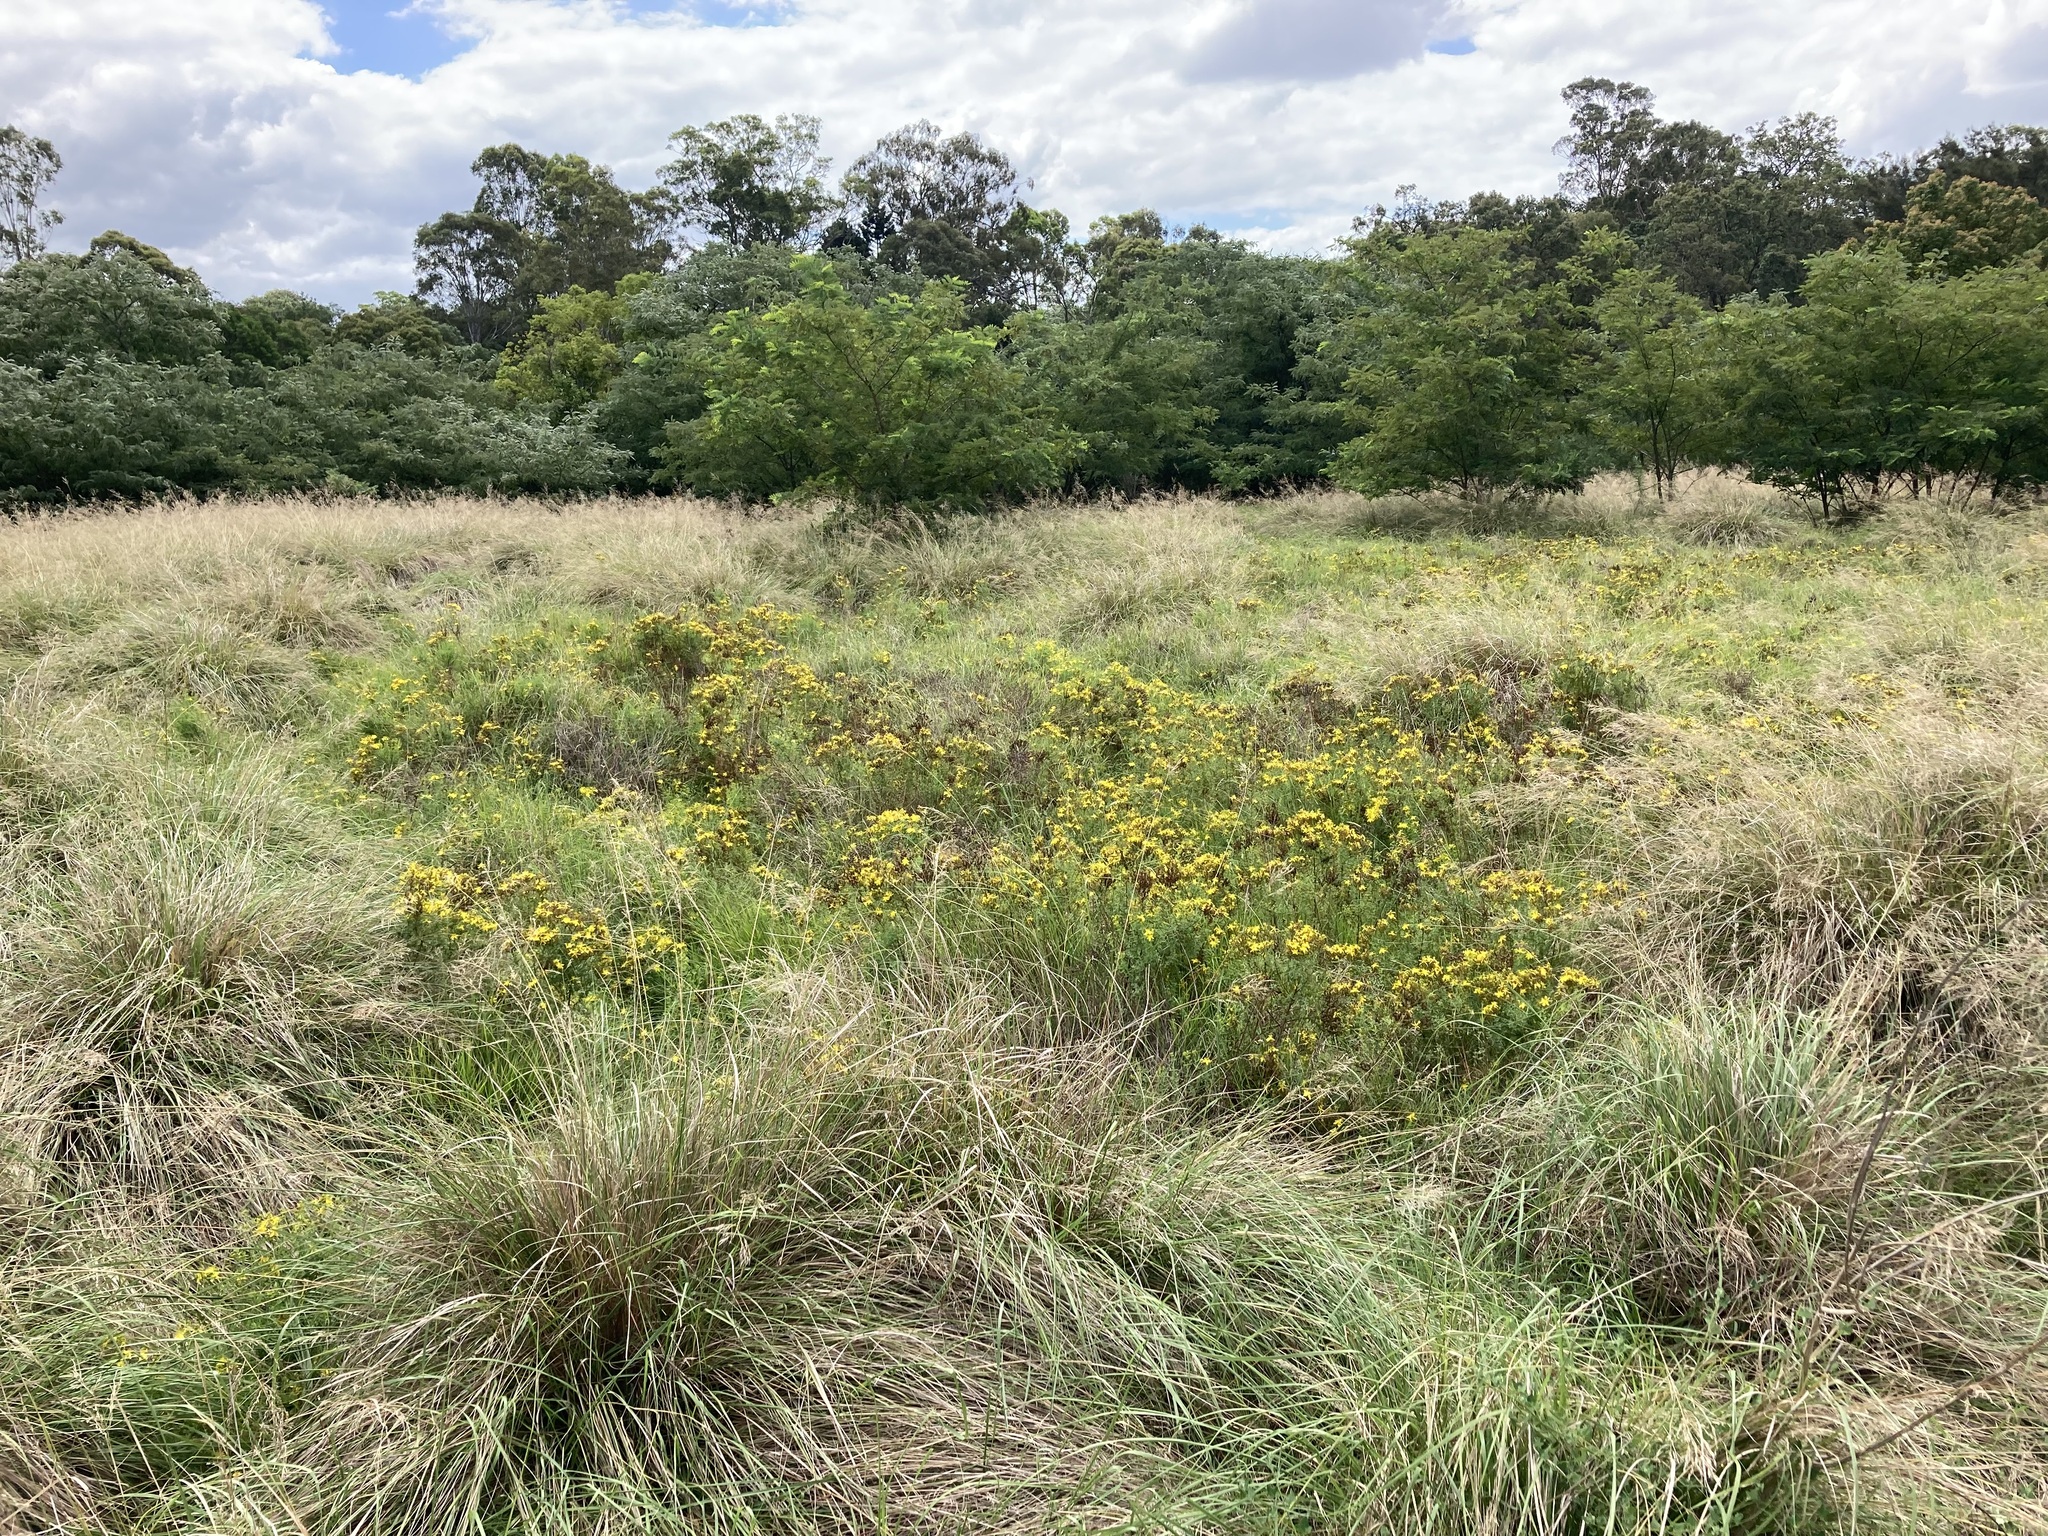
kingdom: Plantae
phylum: Tracheophyta
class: Magnoliopsida
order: Malpighiales
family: Hypericaceae
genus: Hypericum
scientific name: Hypericum perforatum
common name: Common st. johnswort
